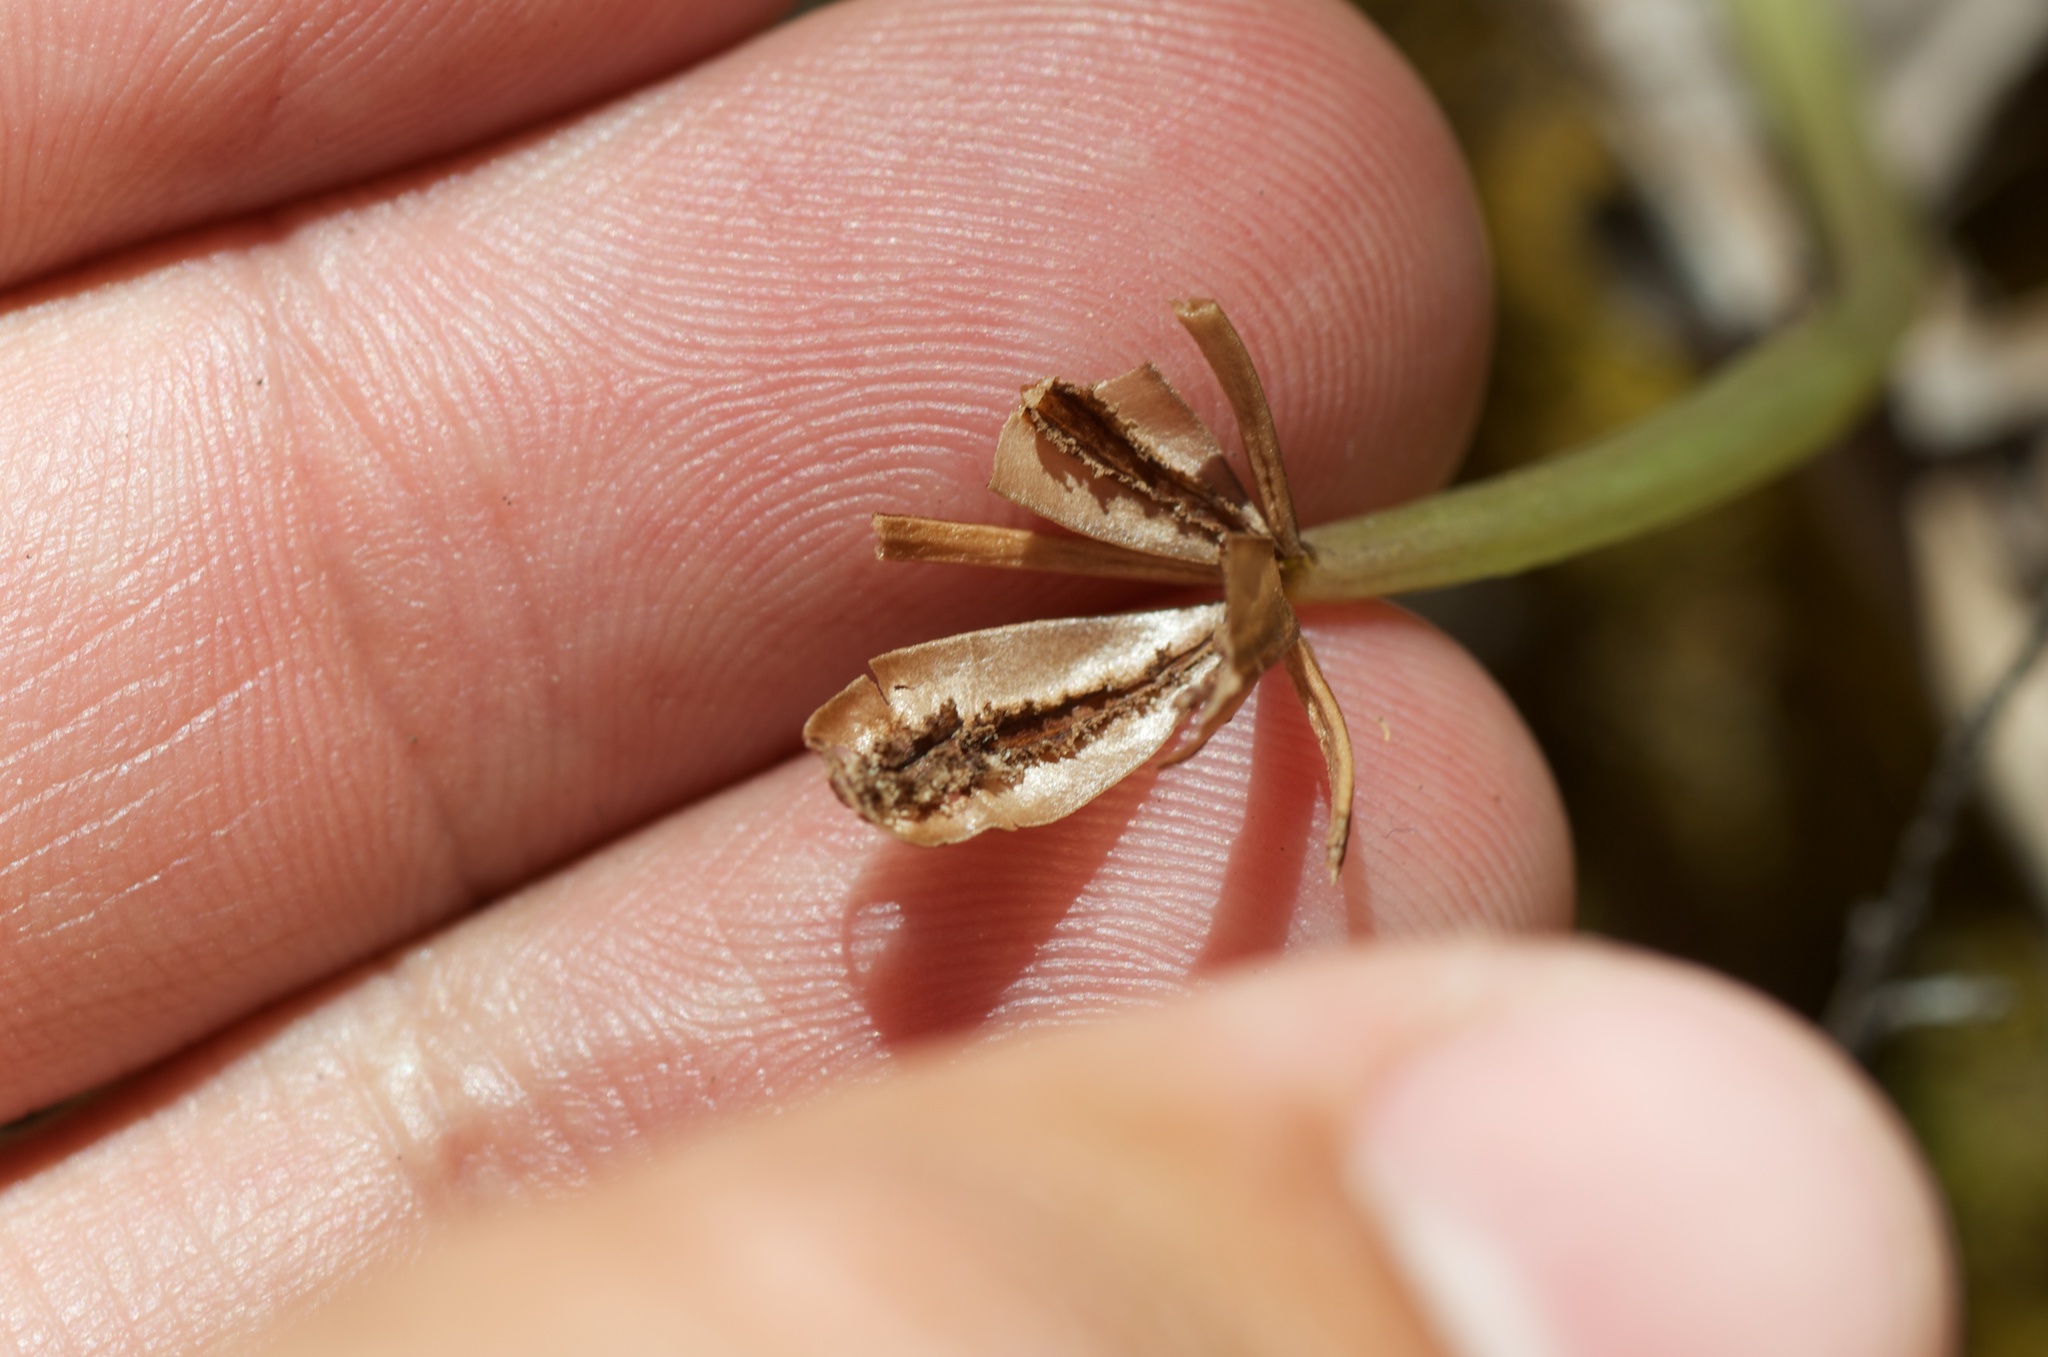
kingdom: Plantae
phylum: Tracheophyta
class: Liliopsida
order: Asparagales
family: Orchidaceae
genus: Chiloglottis
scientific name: Chiloglottis cornuta
